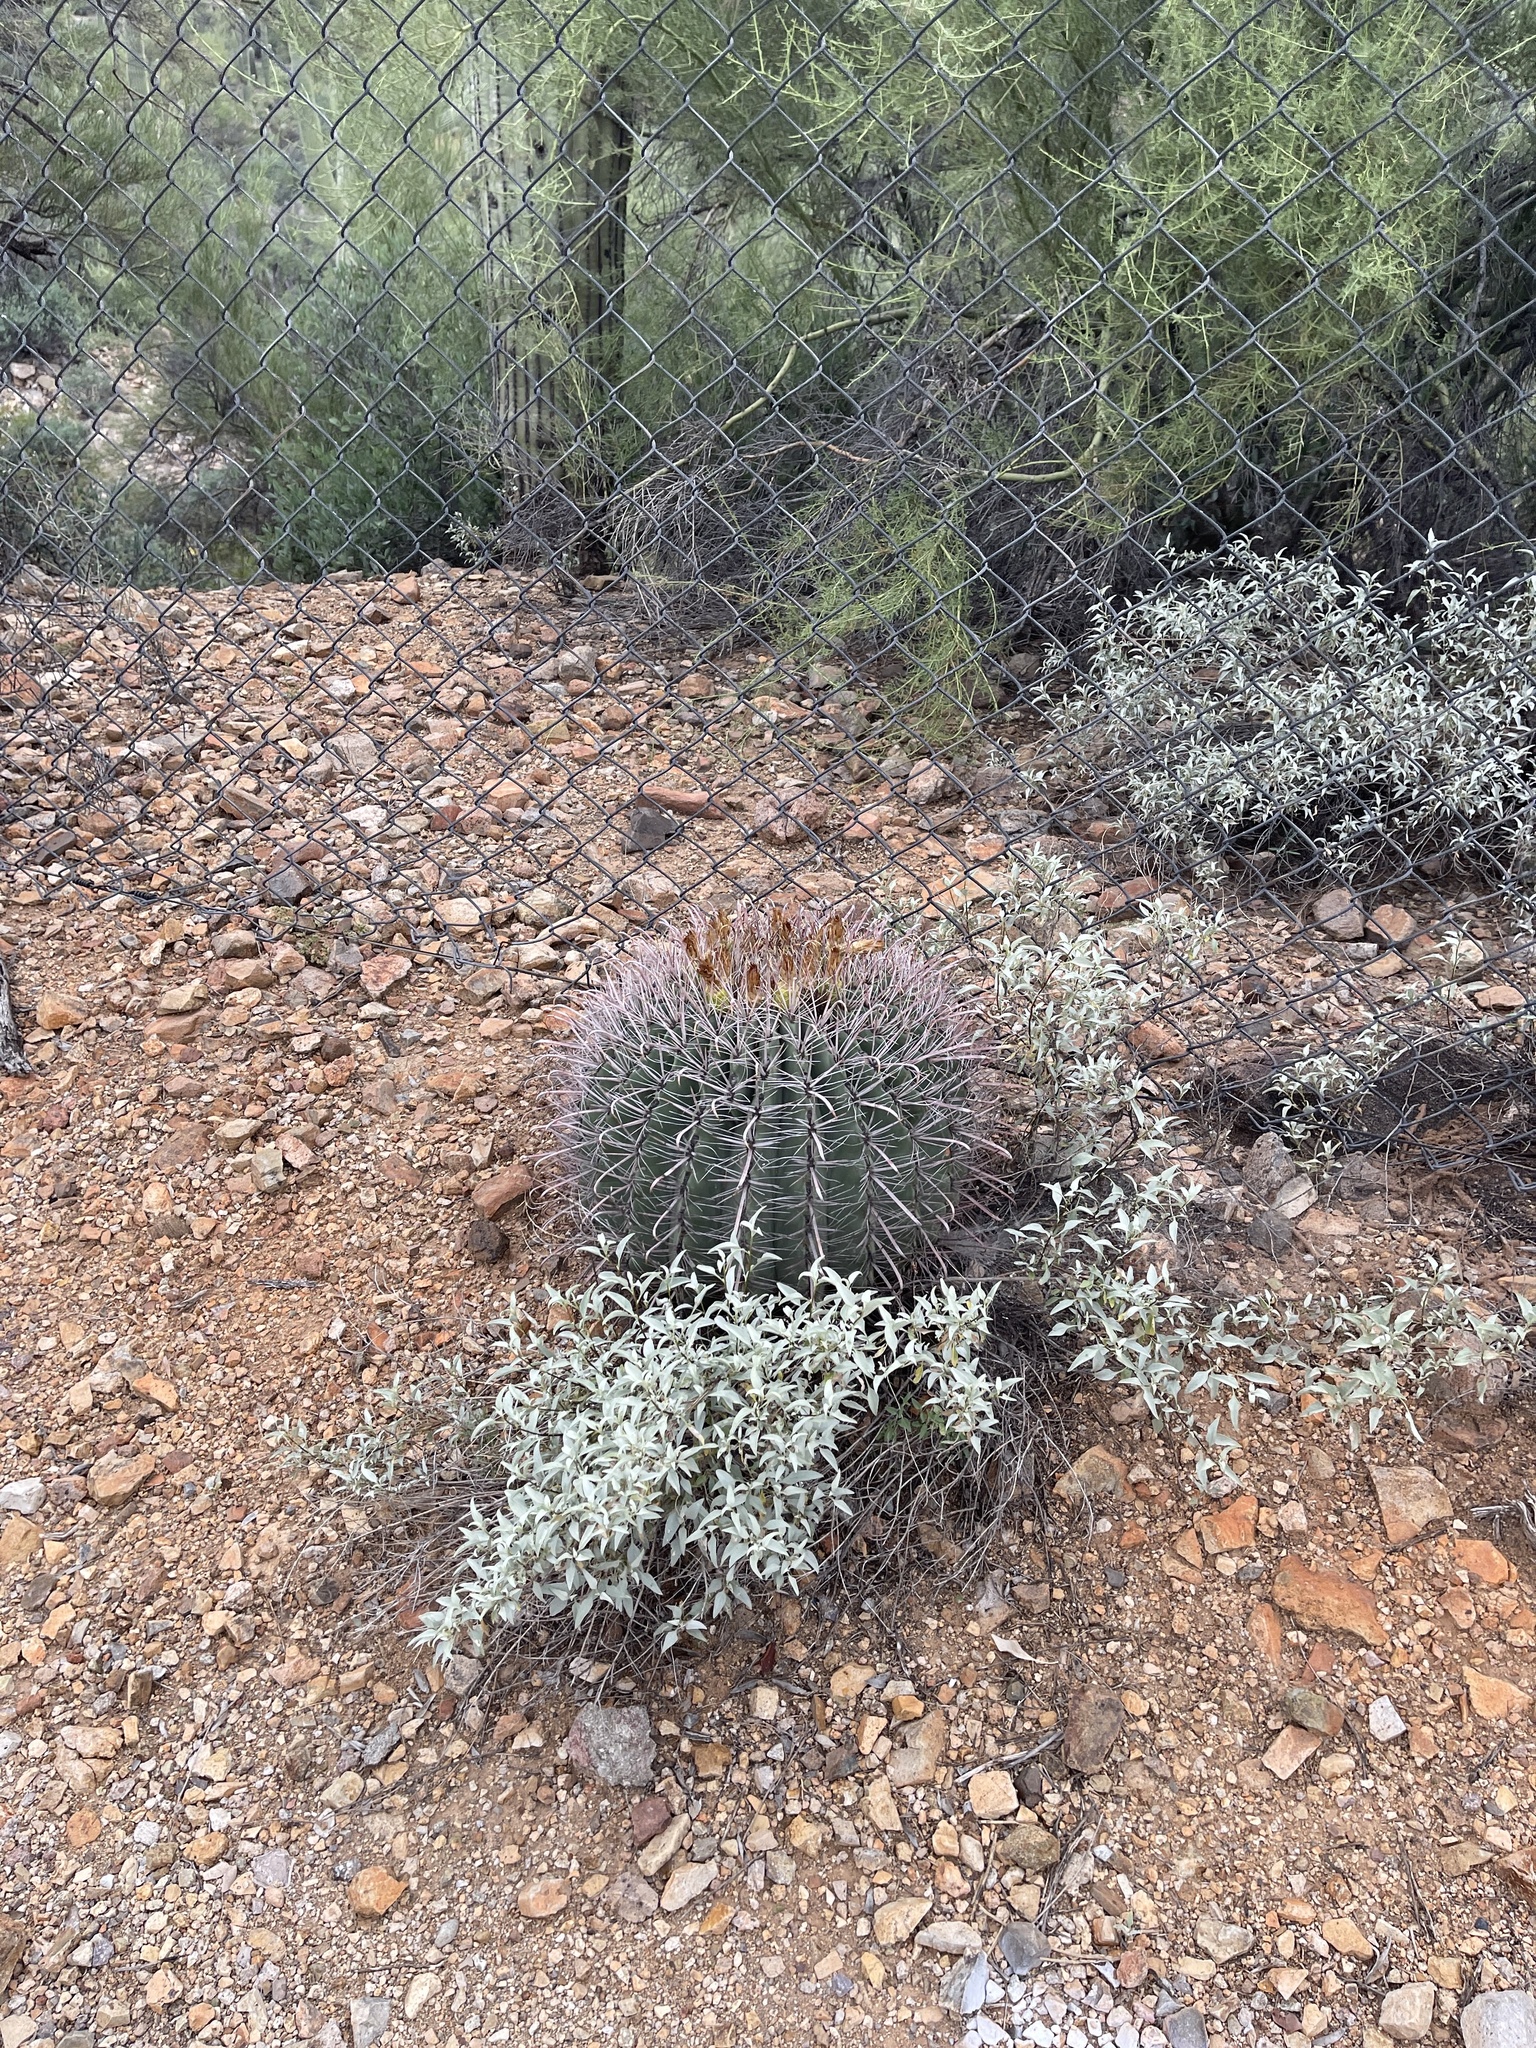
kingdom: Plantae
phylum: Tracheophyta
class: Magnoliopsida
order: Caryophyllales
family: Cactaceae
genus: Ferocactus
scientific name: Ferocactus wislizeni
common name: Candy barrel cactus
